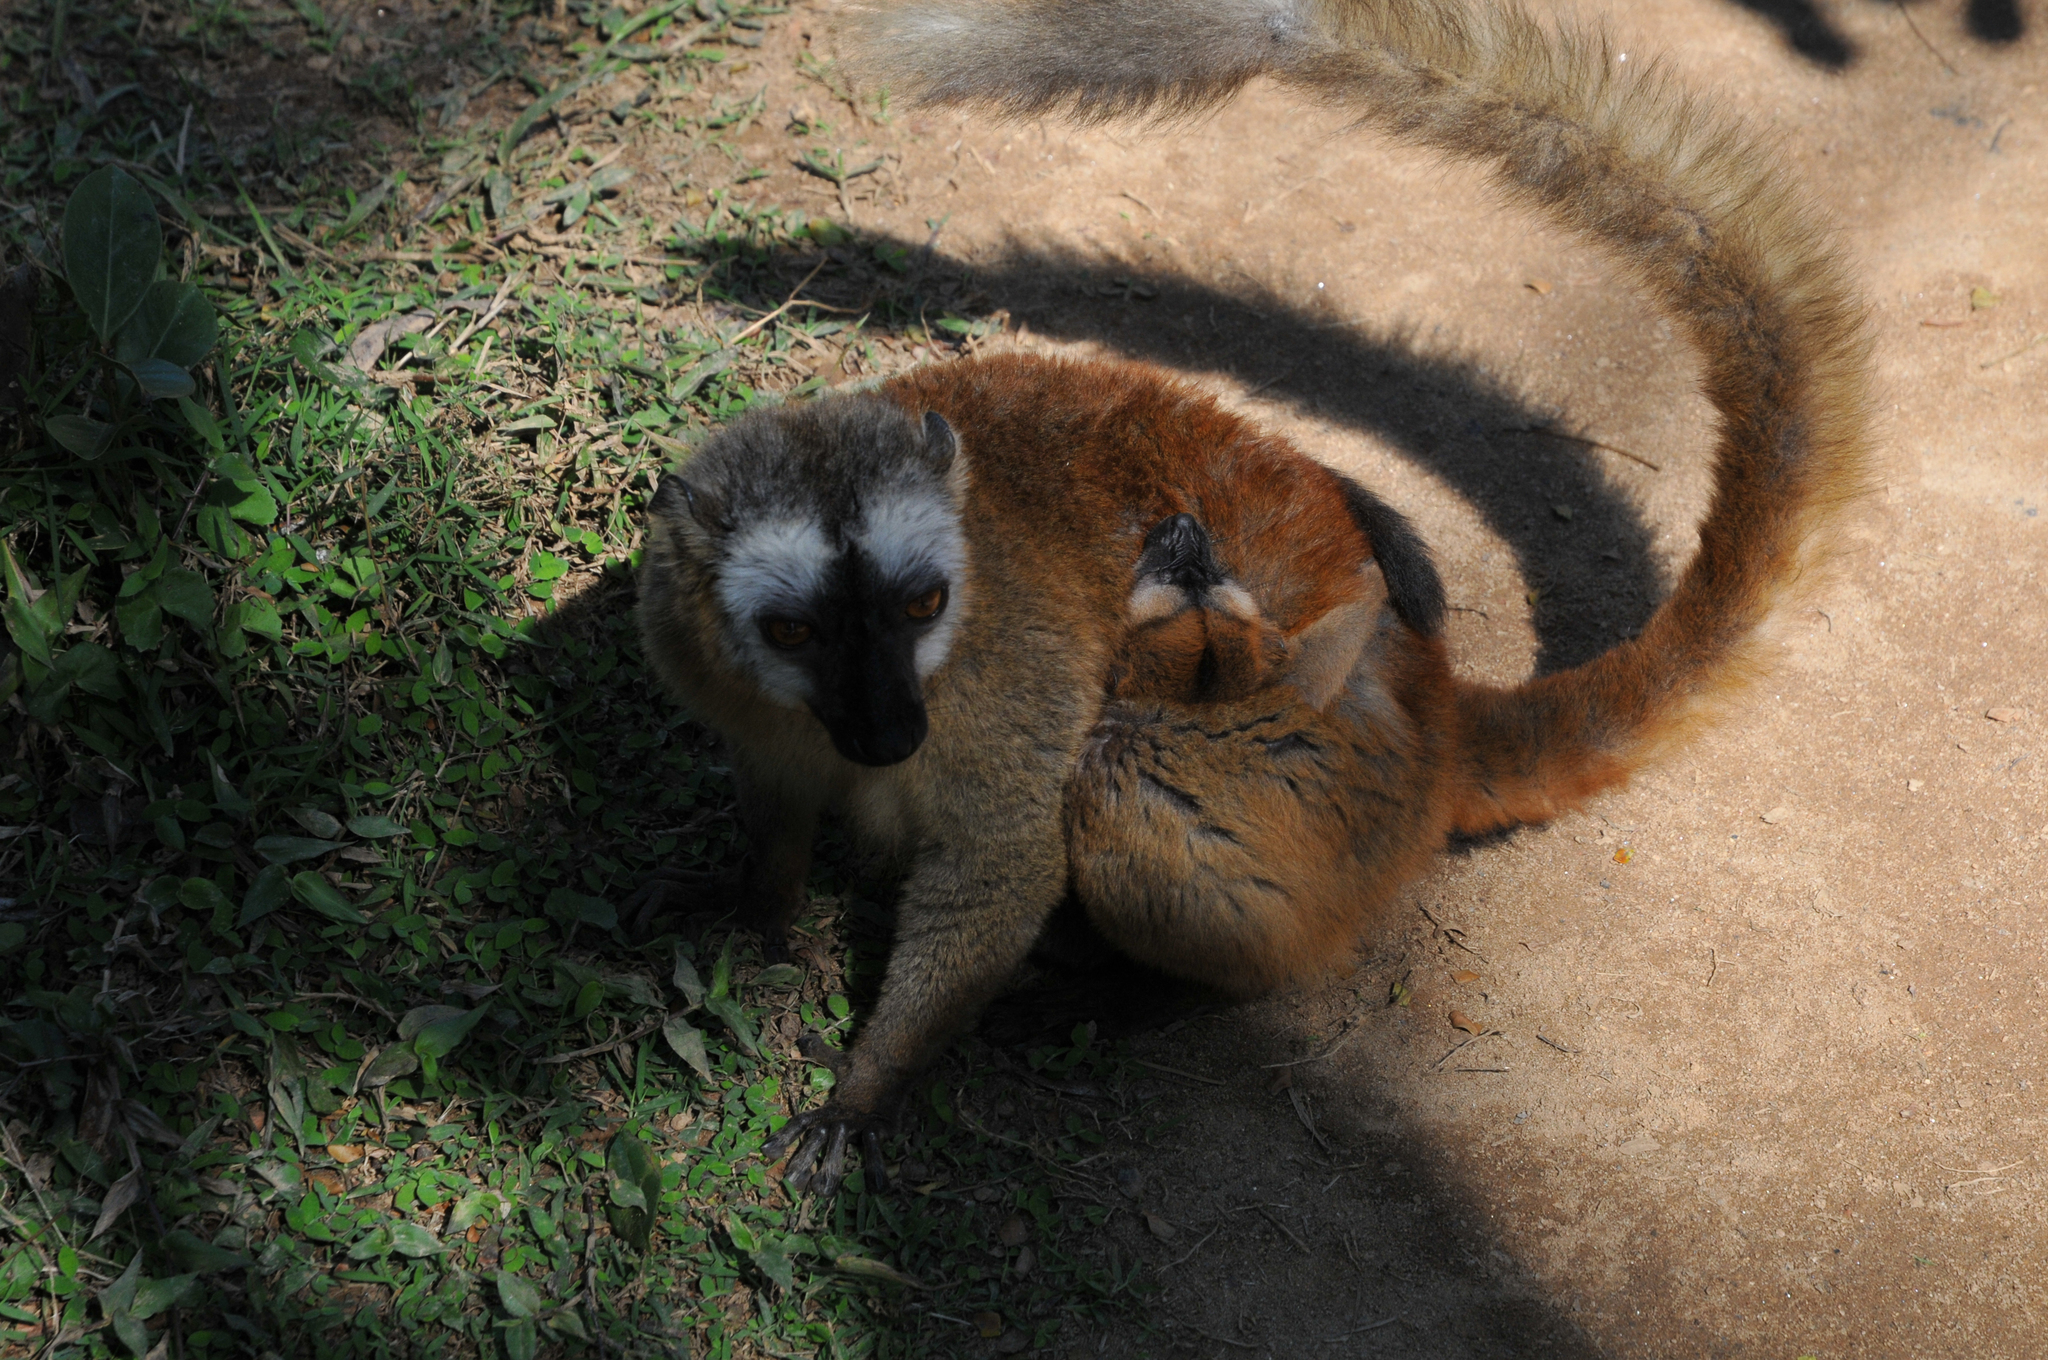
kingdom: Animalia
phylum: Chordata
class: Mammalia
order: Primates
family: Lemuridae
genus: Eulemur
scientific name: Eulemur fulvus
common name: Brown lemur
